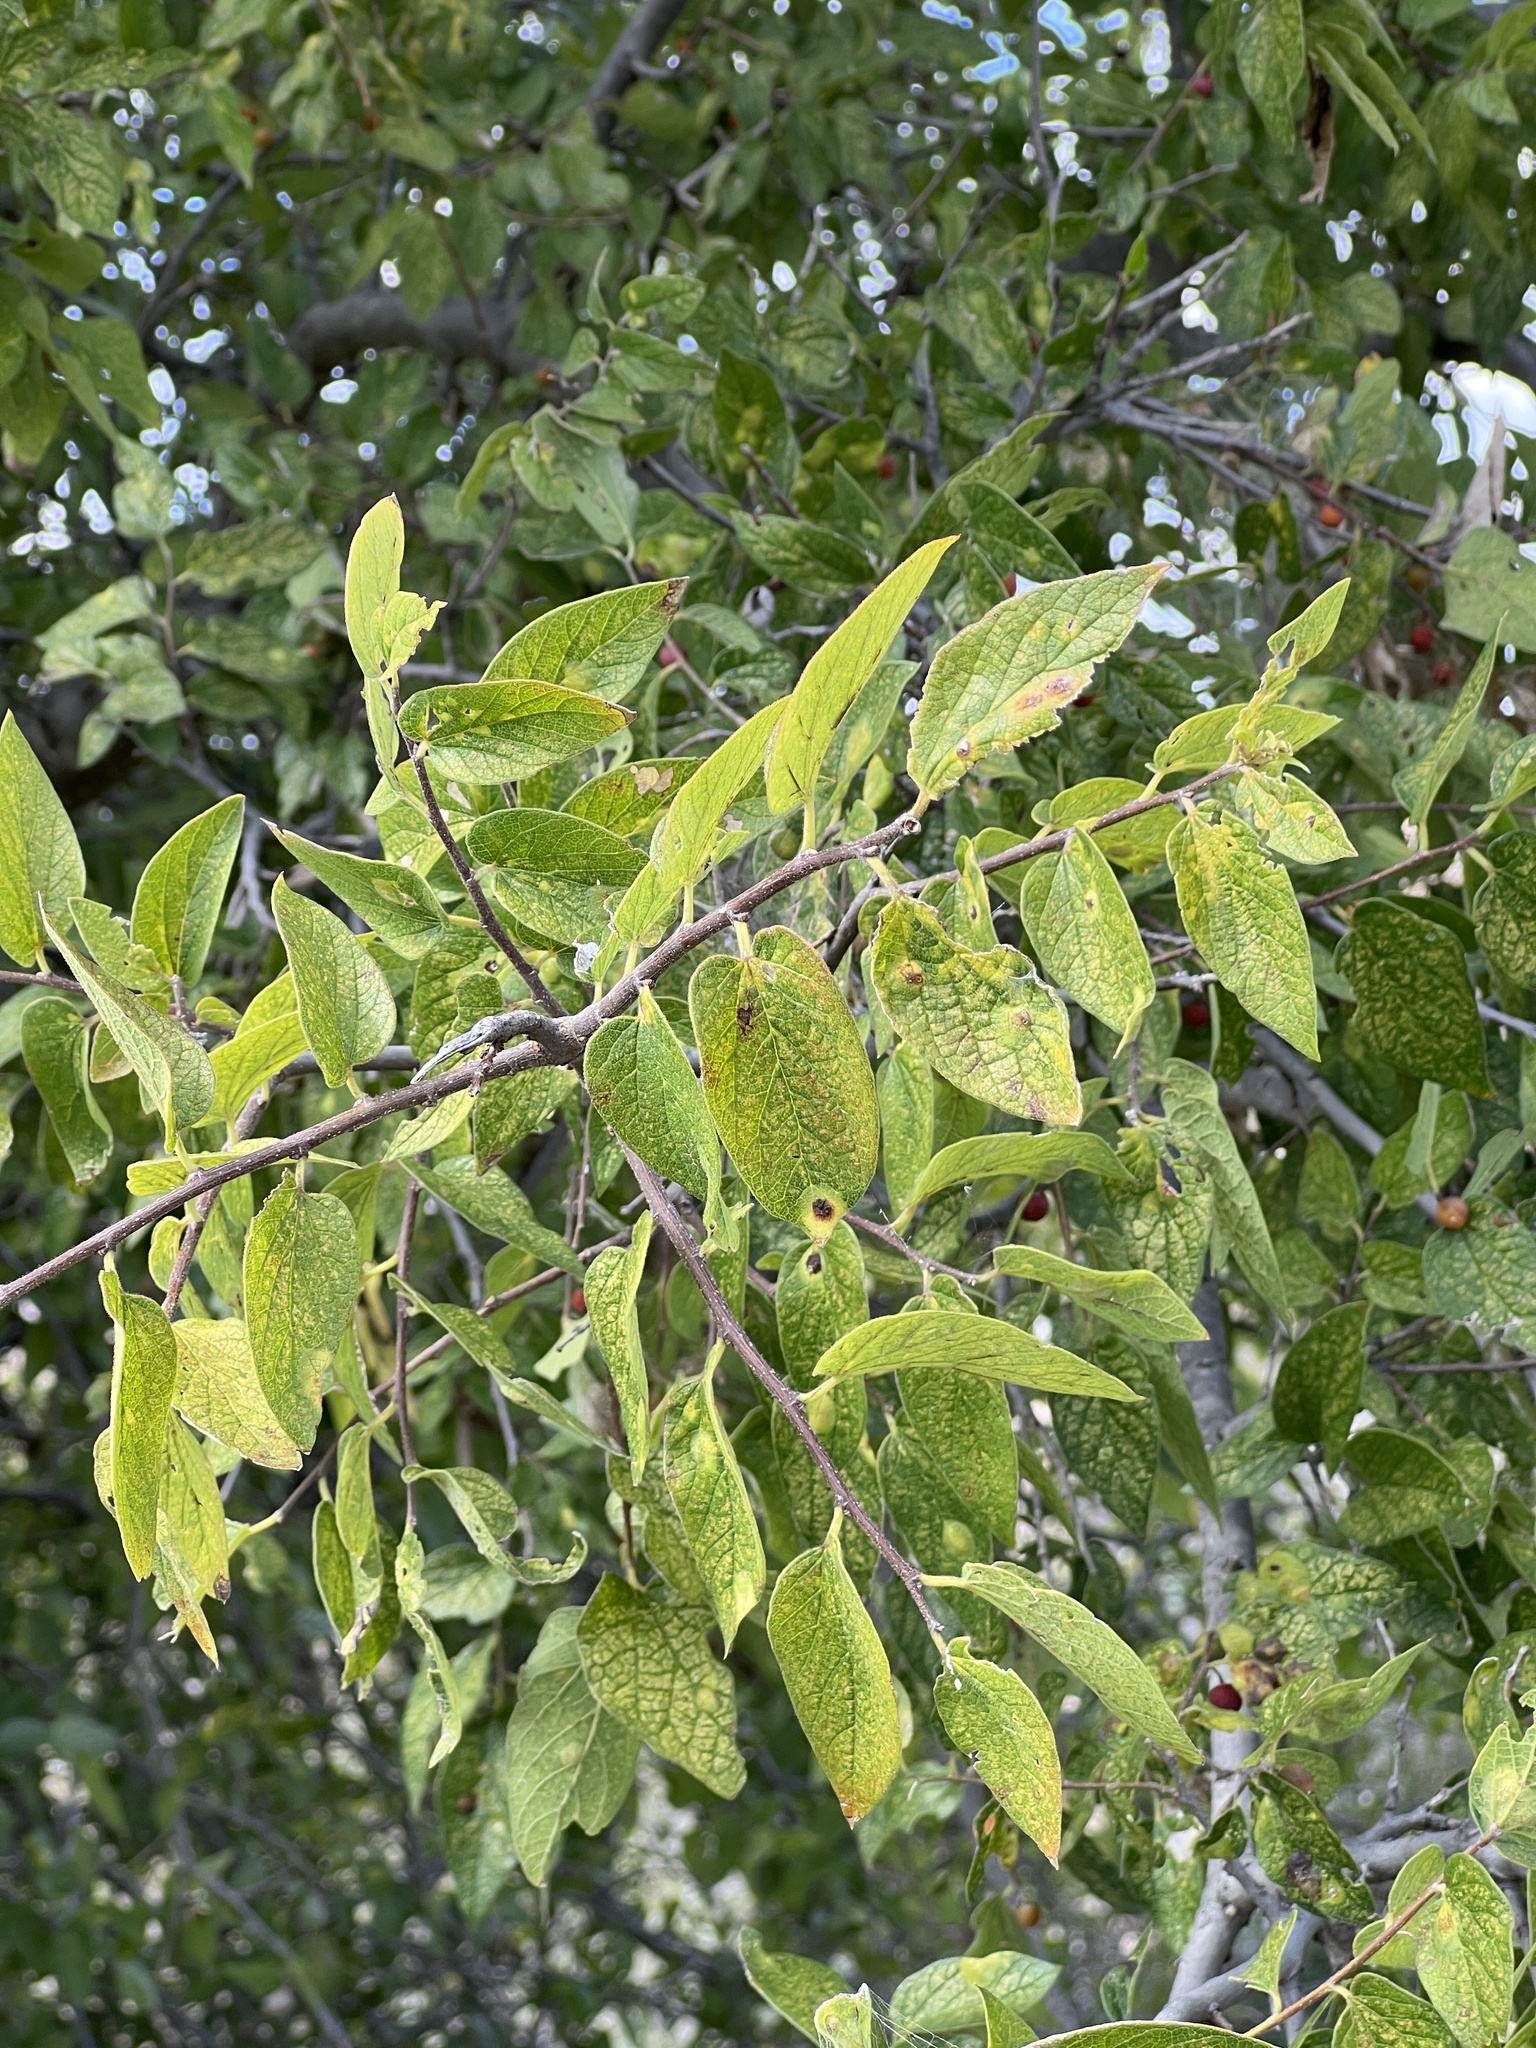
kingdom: Plantae
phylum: Tracheophyta
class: Magnoliopsida
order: Rosales
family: Cannabaceae
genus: Celtis
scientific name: Celtis reticulata
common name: Netleaf hackberry
